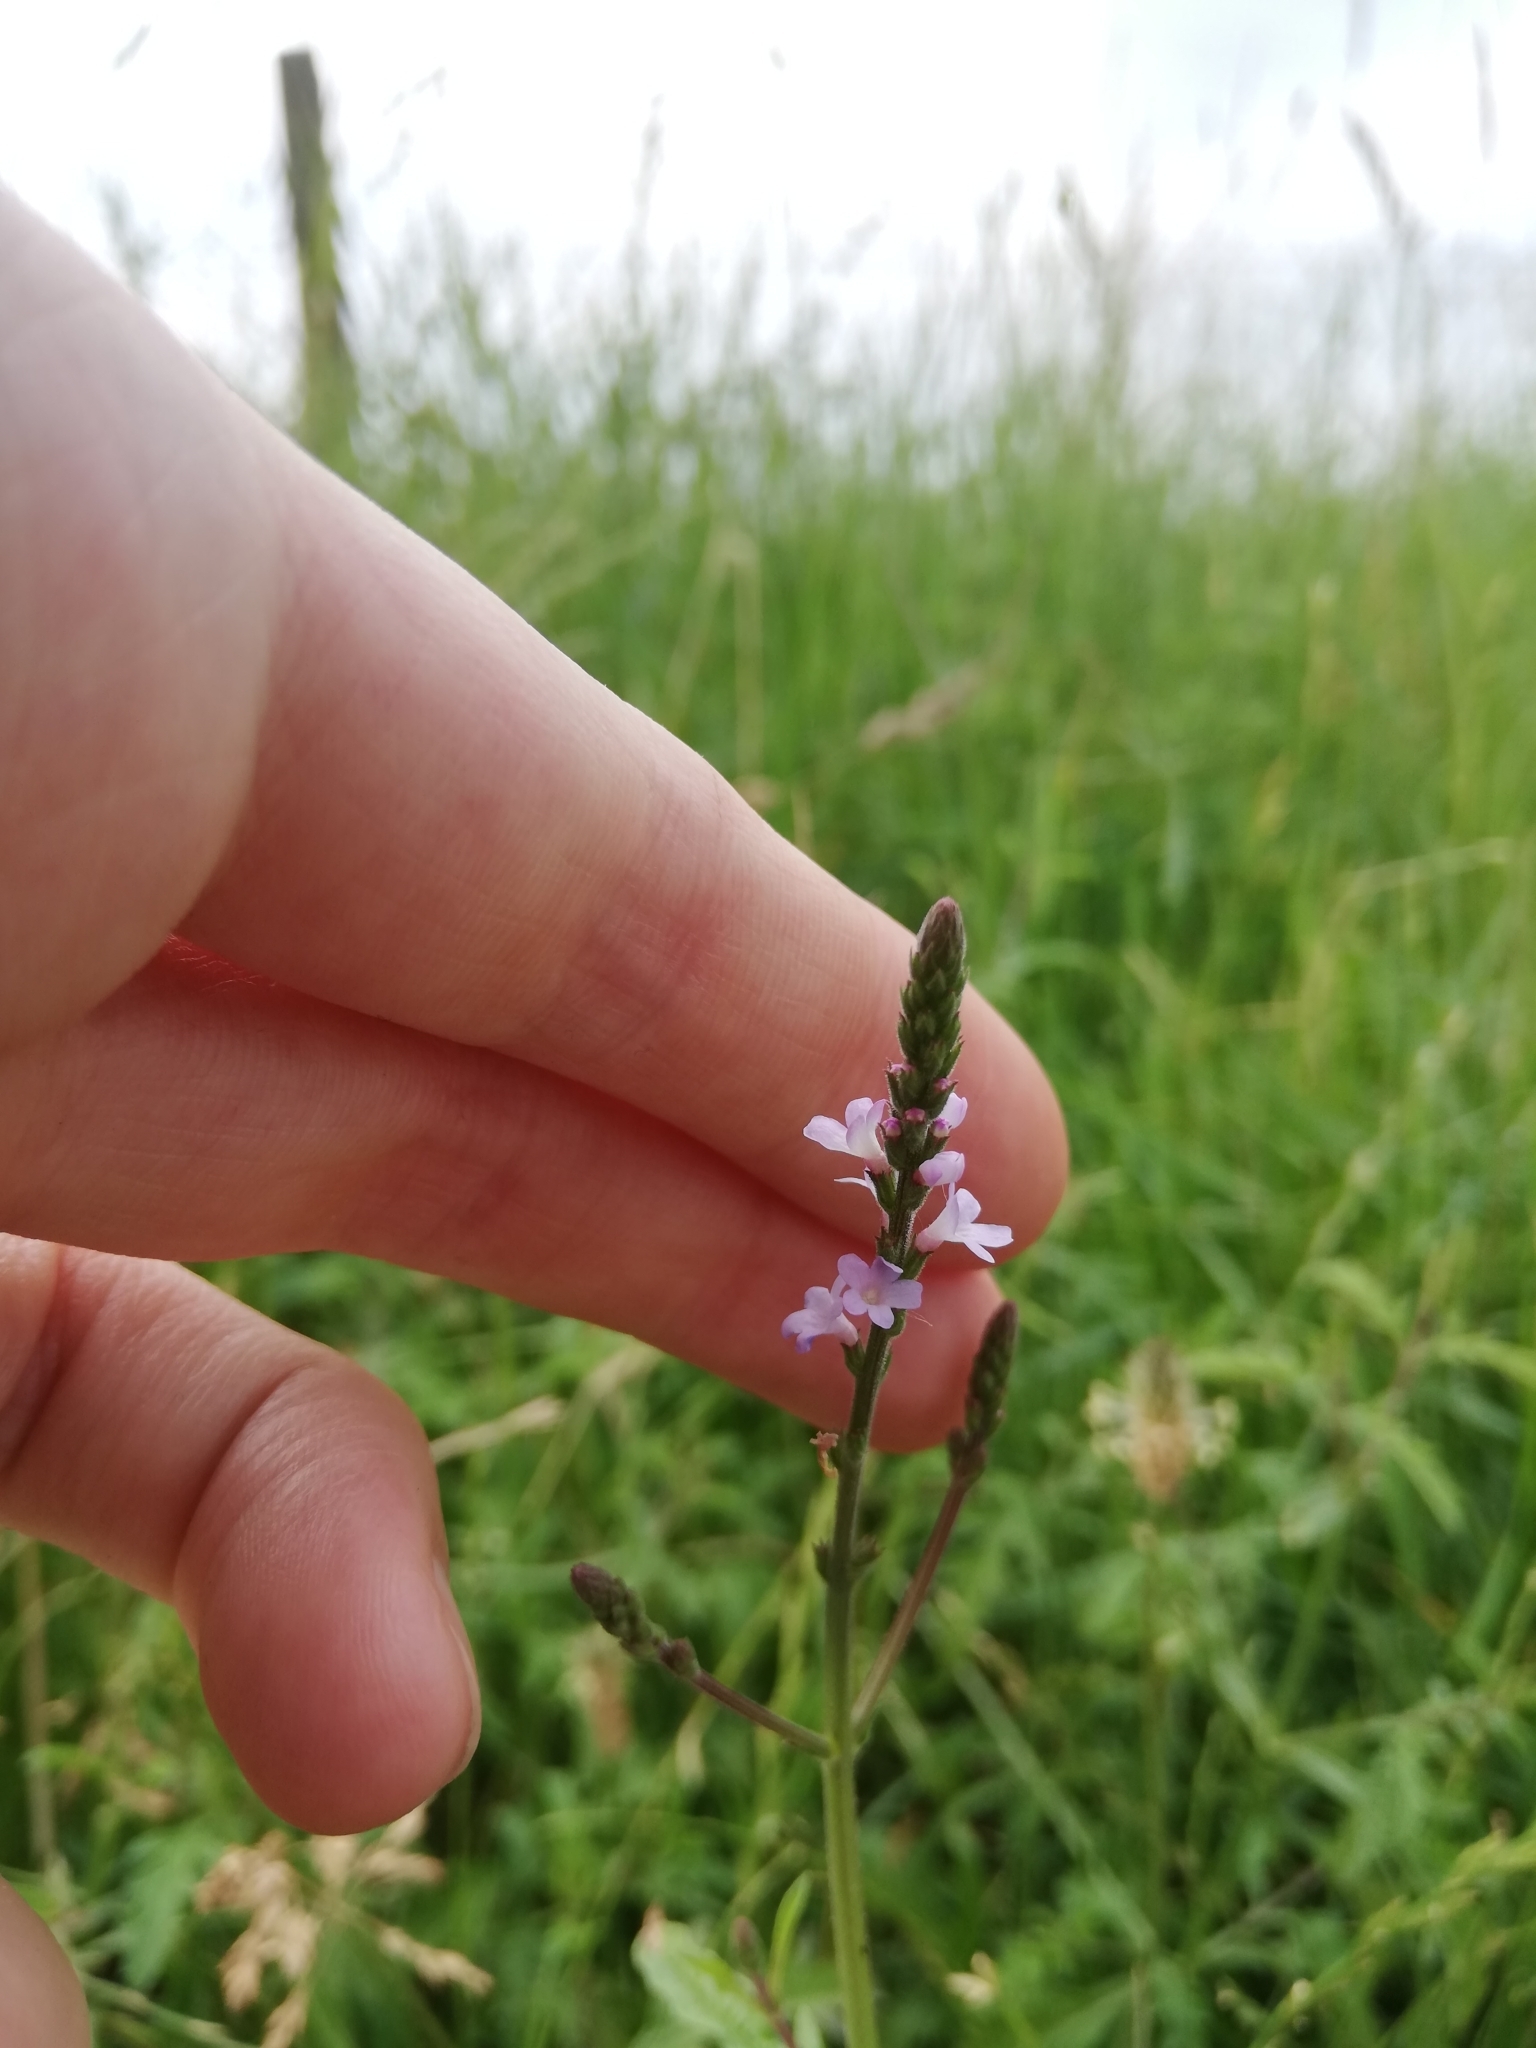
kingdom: Plantae
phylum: Tracheophyta
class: Magnoliopsida
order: Lamiales
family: Verbenaceae
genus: Verbena
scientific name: Verbena officinalis
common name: Vervain
